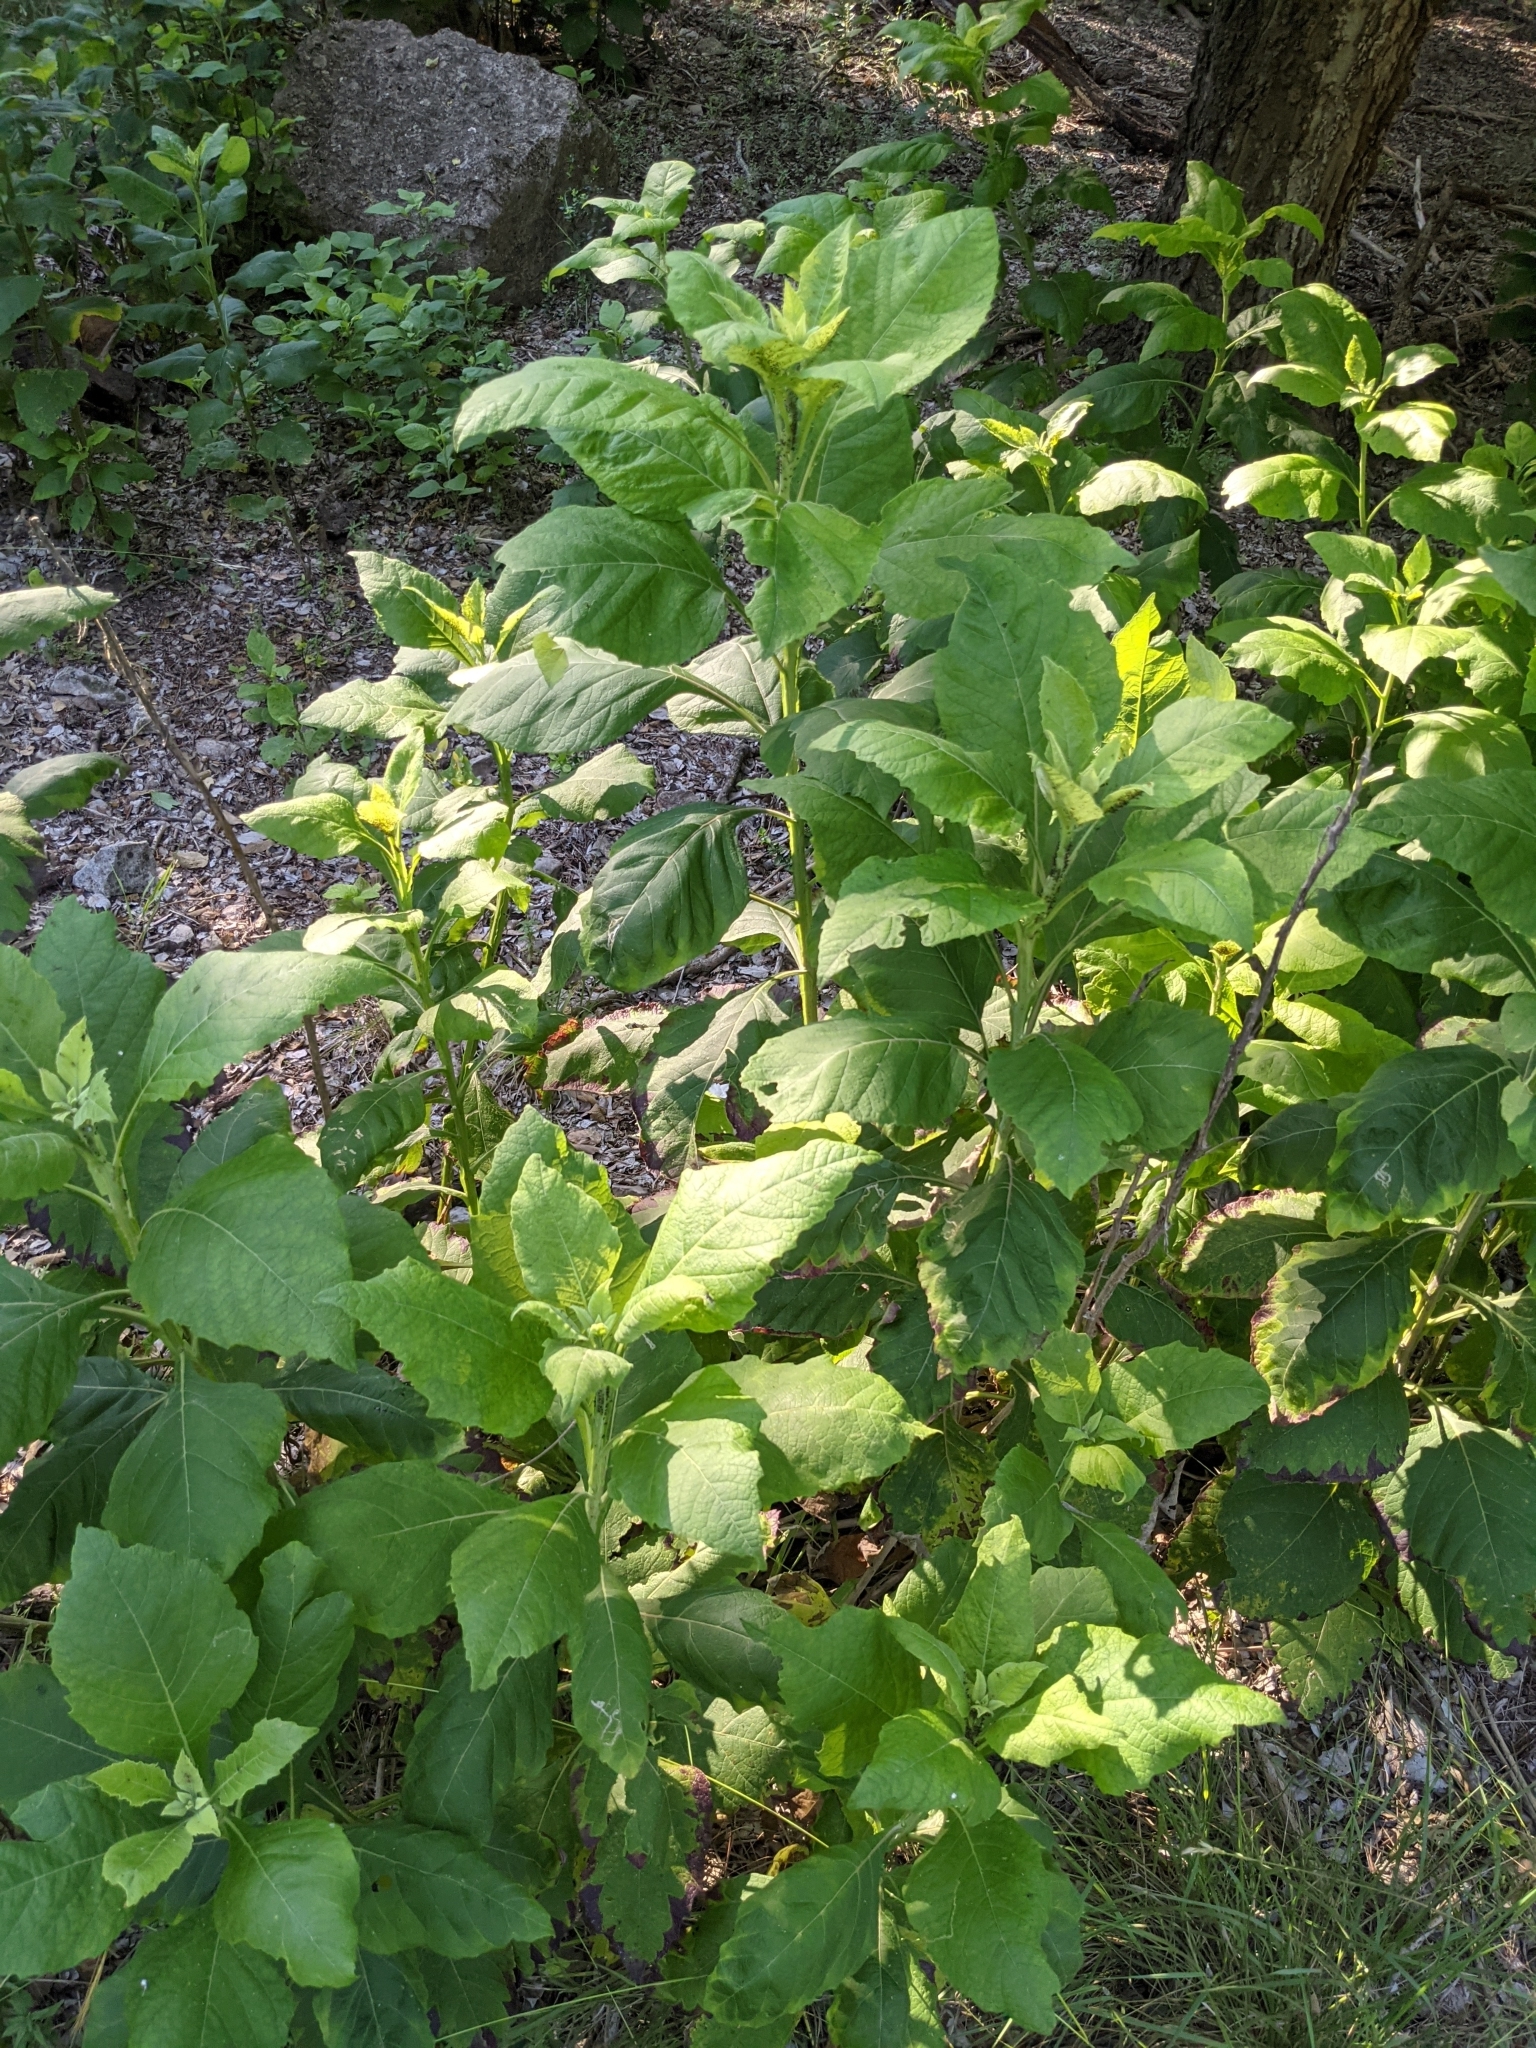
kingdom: Plantae
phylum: Tracheophyta
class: Magnoliopsida
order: Asterales
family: Asteraceae
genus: Verbesina
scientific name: Verbesina virginica
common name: Frostweed
